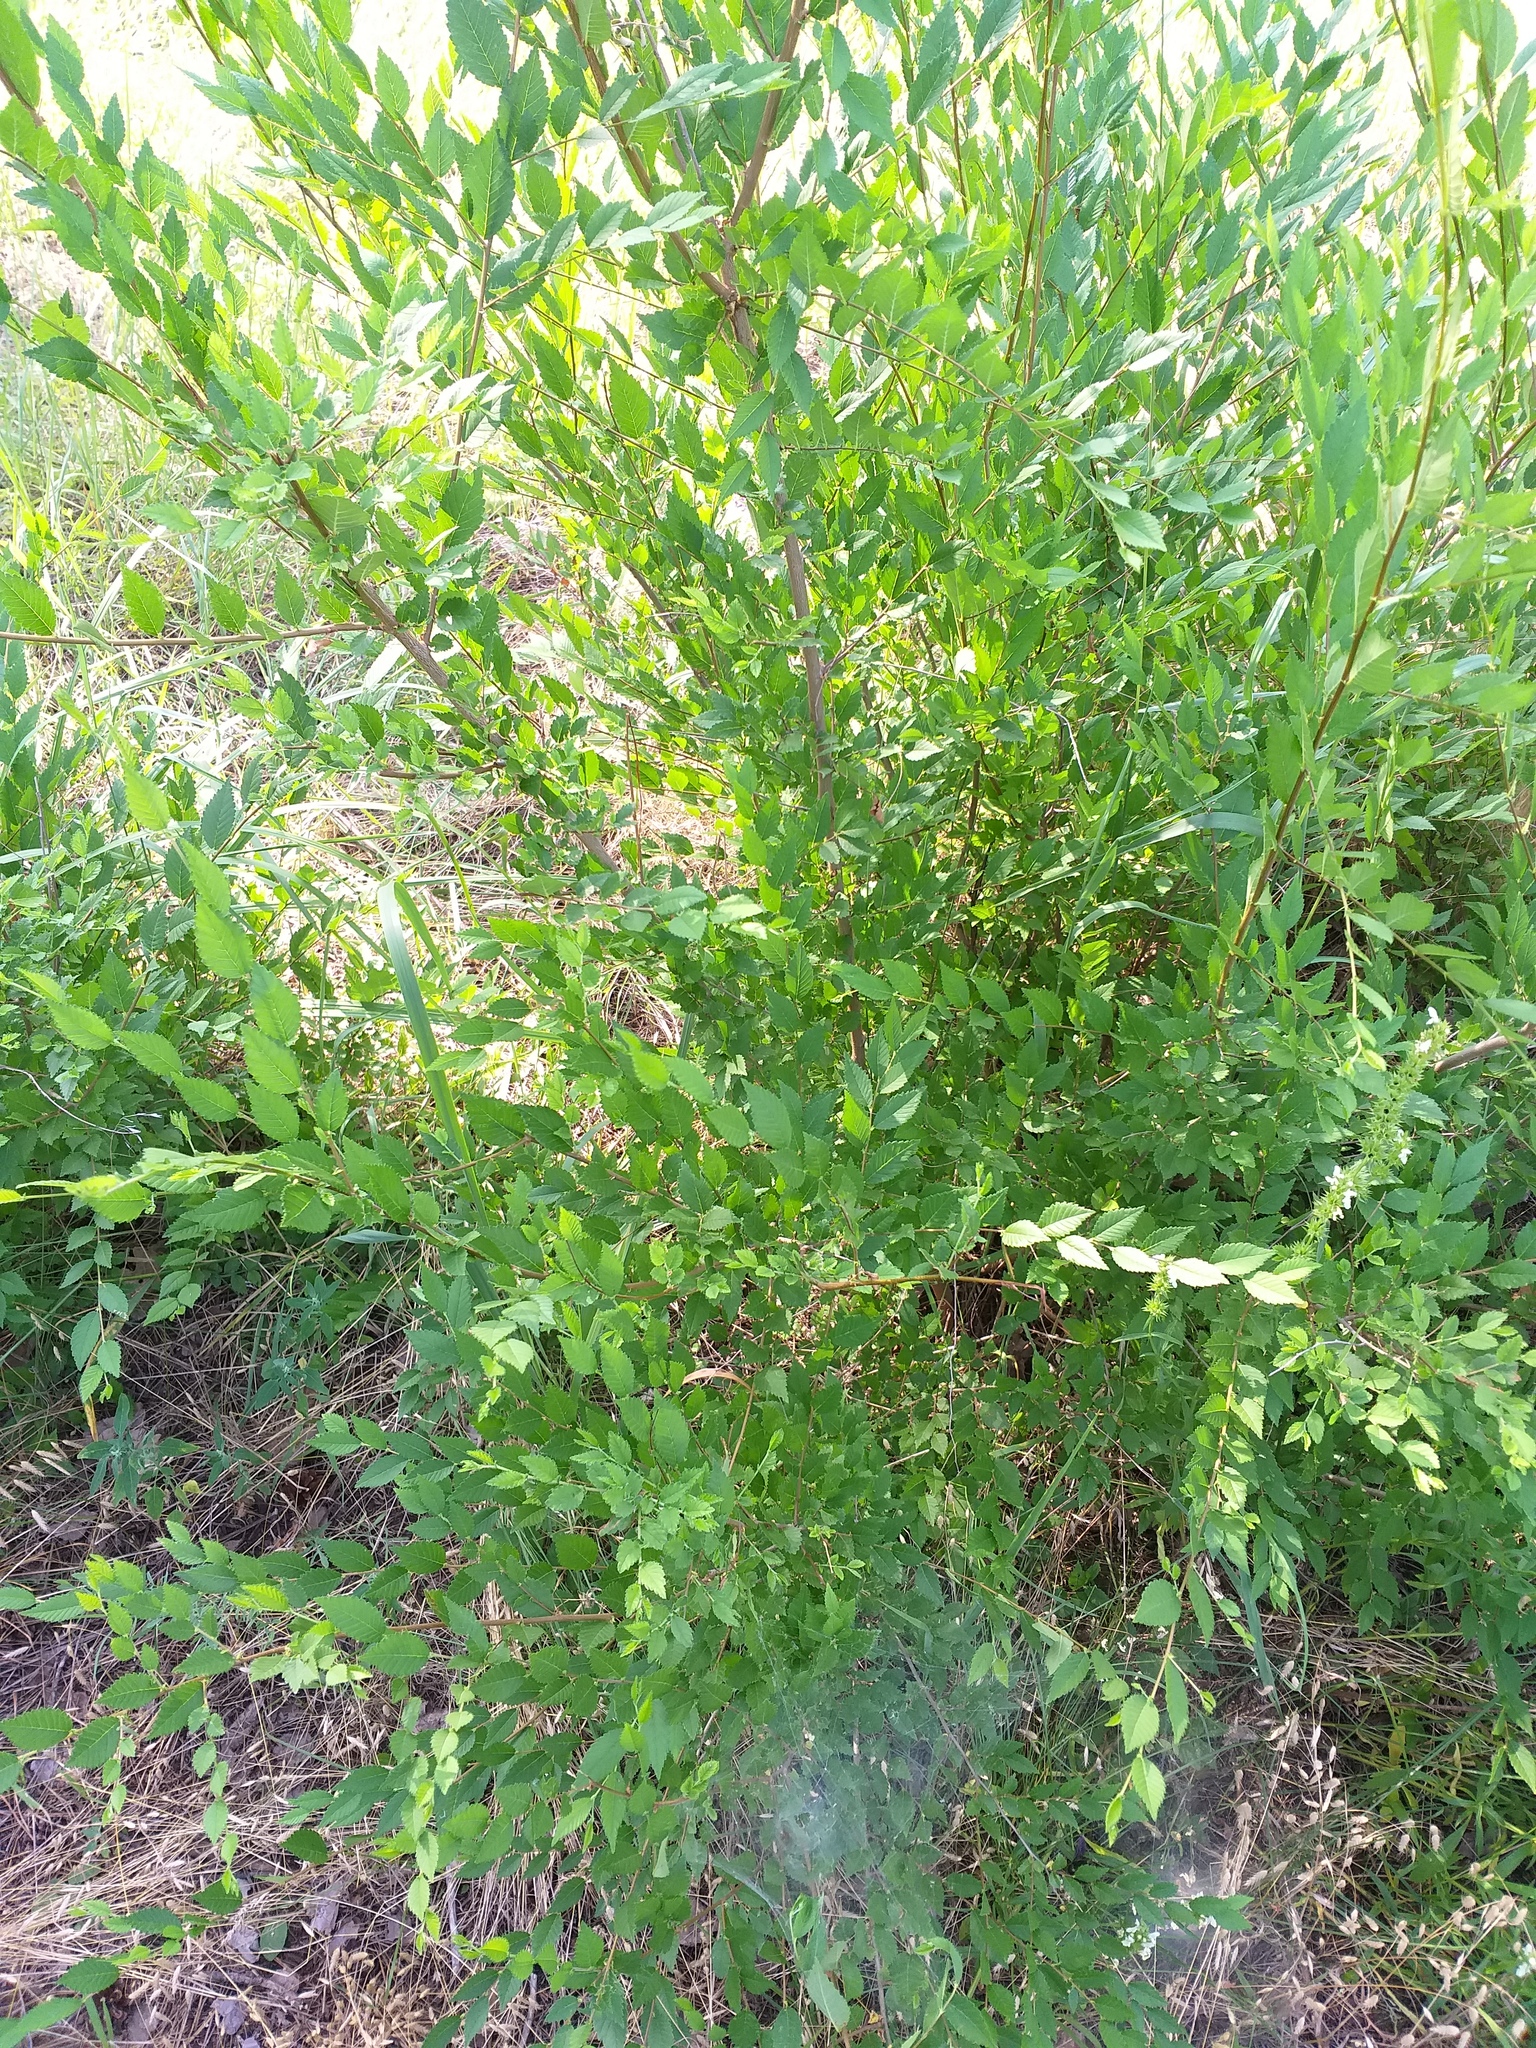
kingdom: Plantae
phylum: Tracheophyta
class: Magnoliopsida
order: Rosales
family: Ulmaceae
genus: Ulmus
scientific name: Ulmus pumila
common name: Siberian elm
